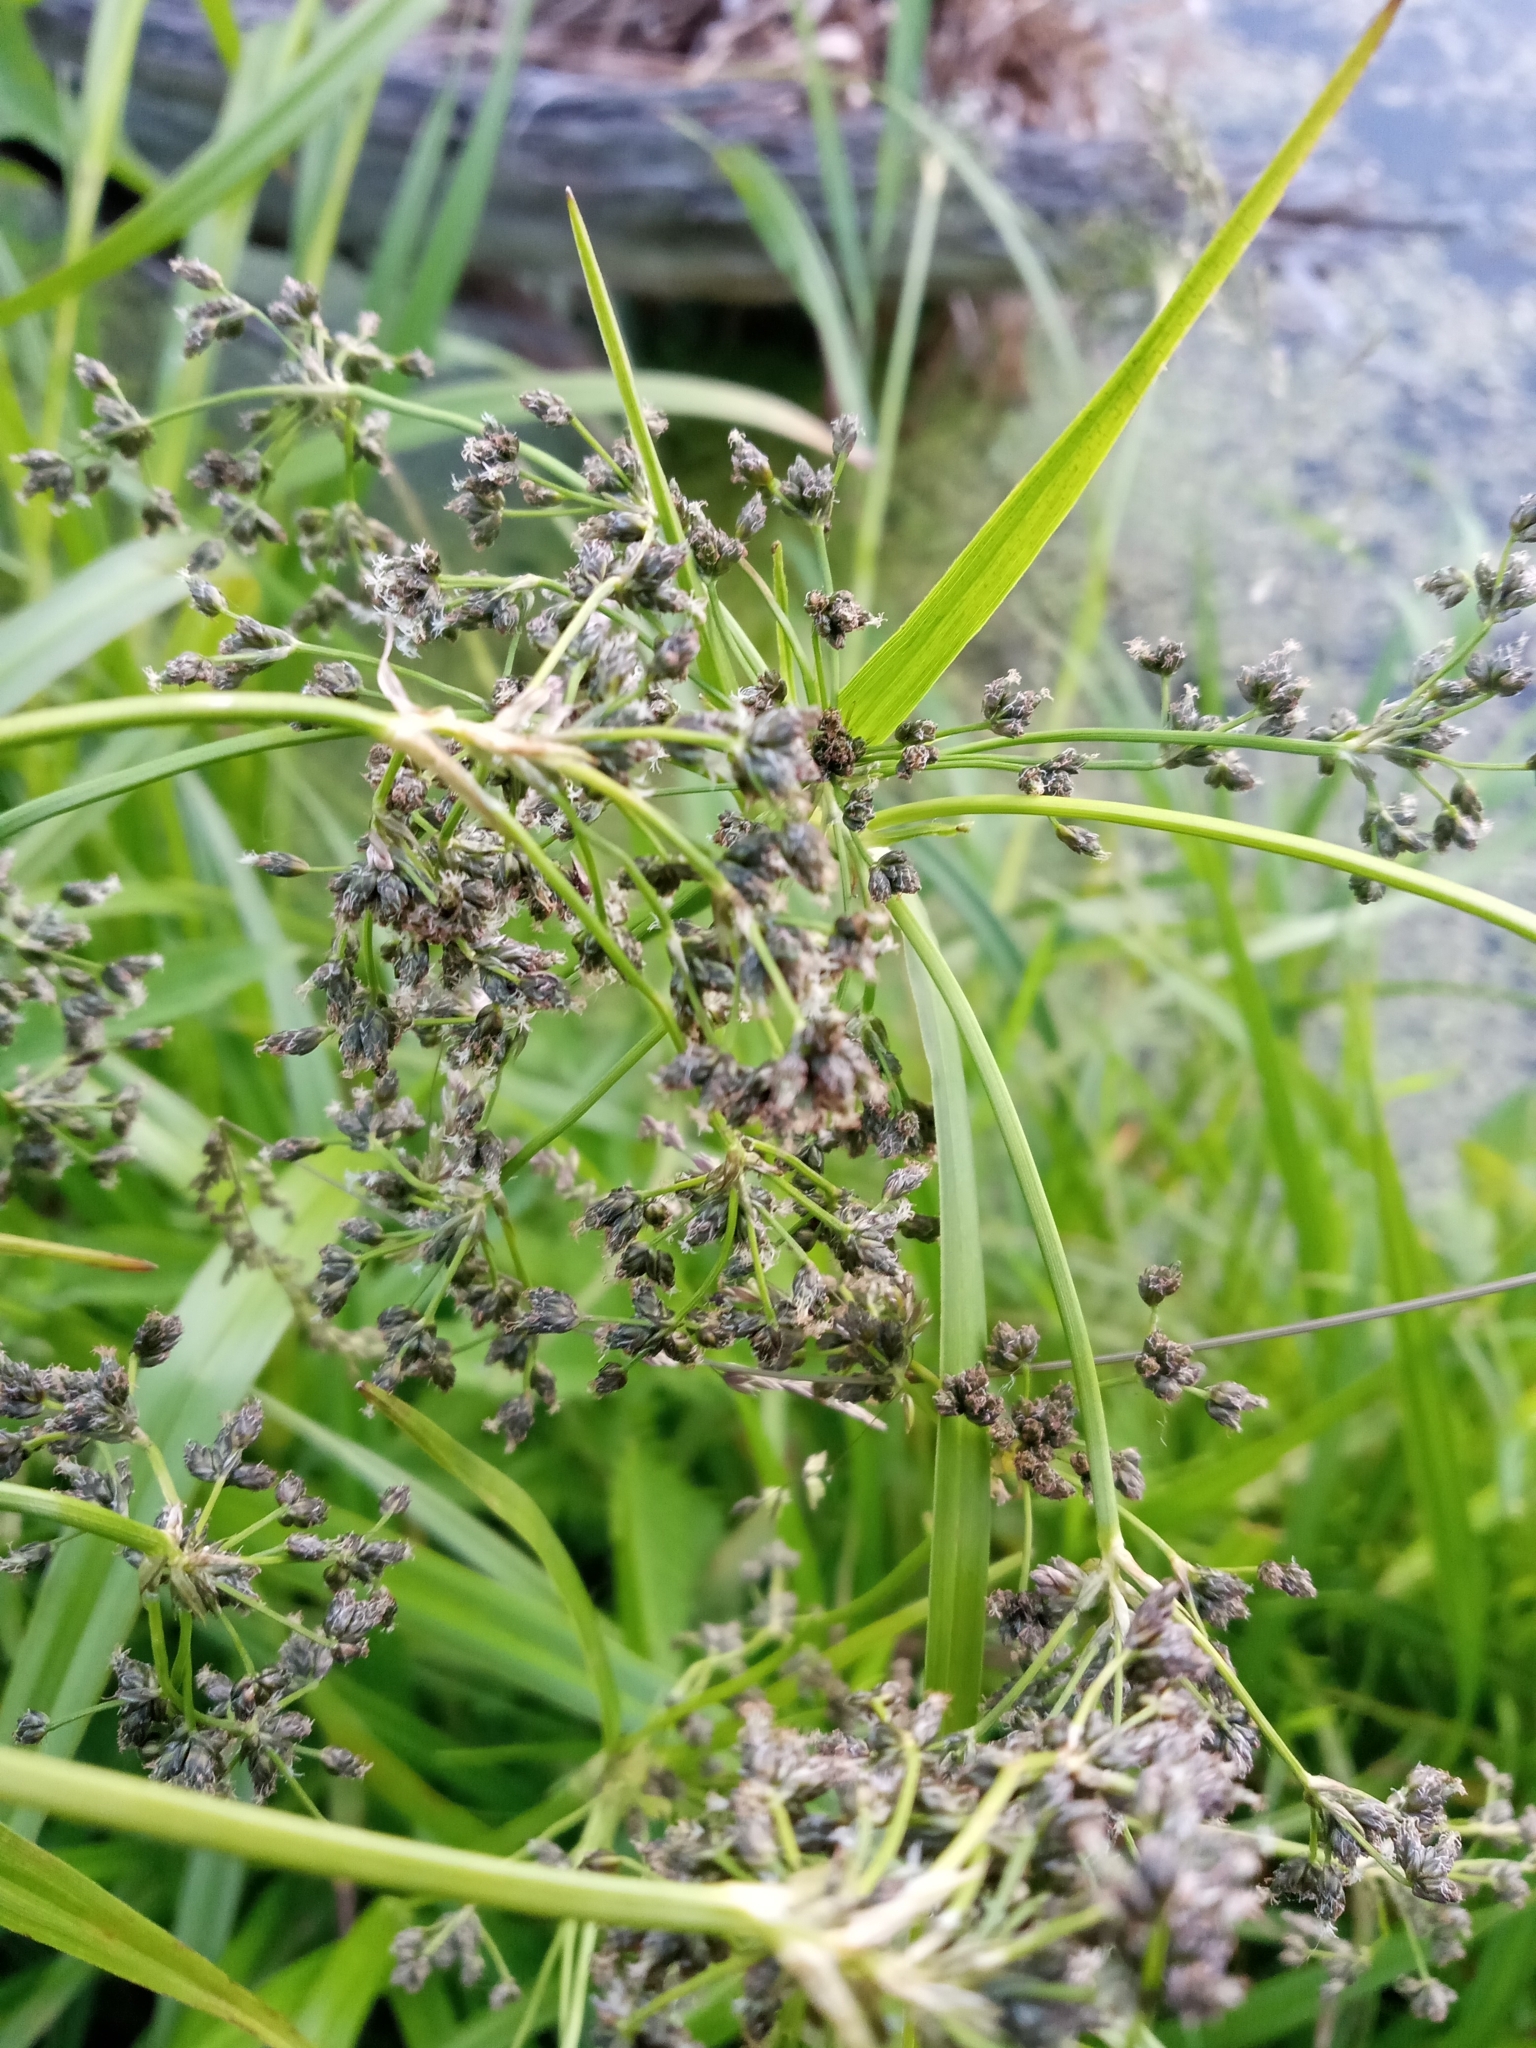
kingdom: Plantae
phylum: Tracheophyta
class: Liliopsida
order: Poales
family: Cyperaceae
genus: Scirpus
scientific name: Scirpus sylvaticus
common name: Wood club-rush
